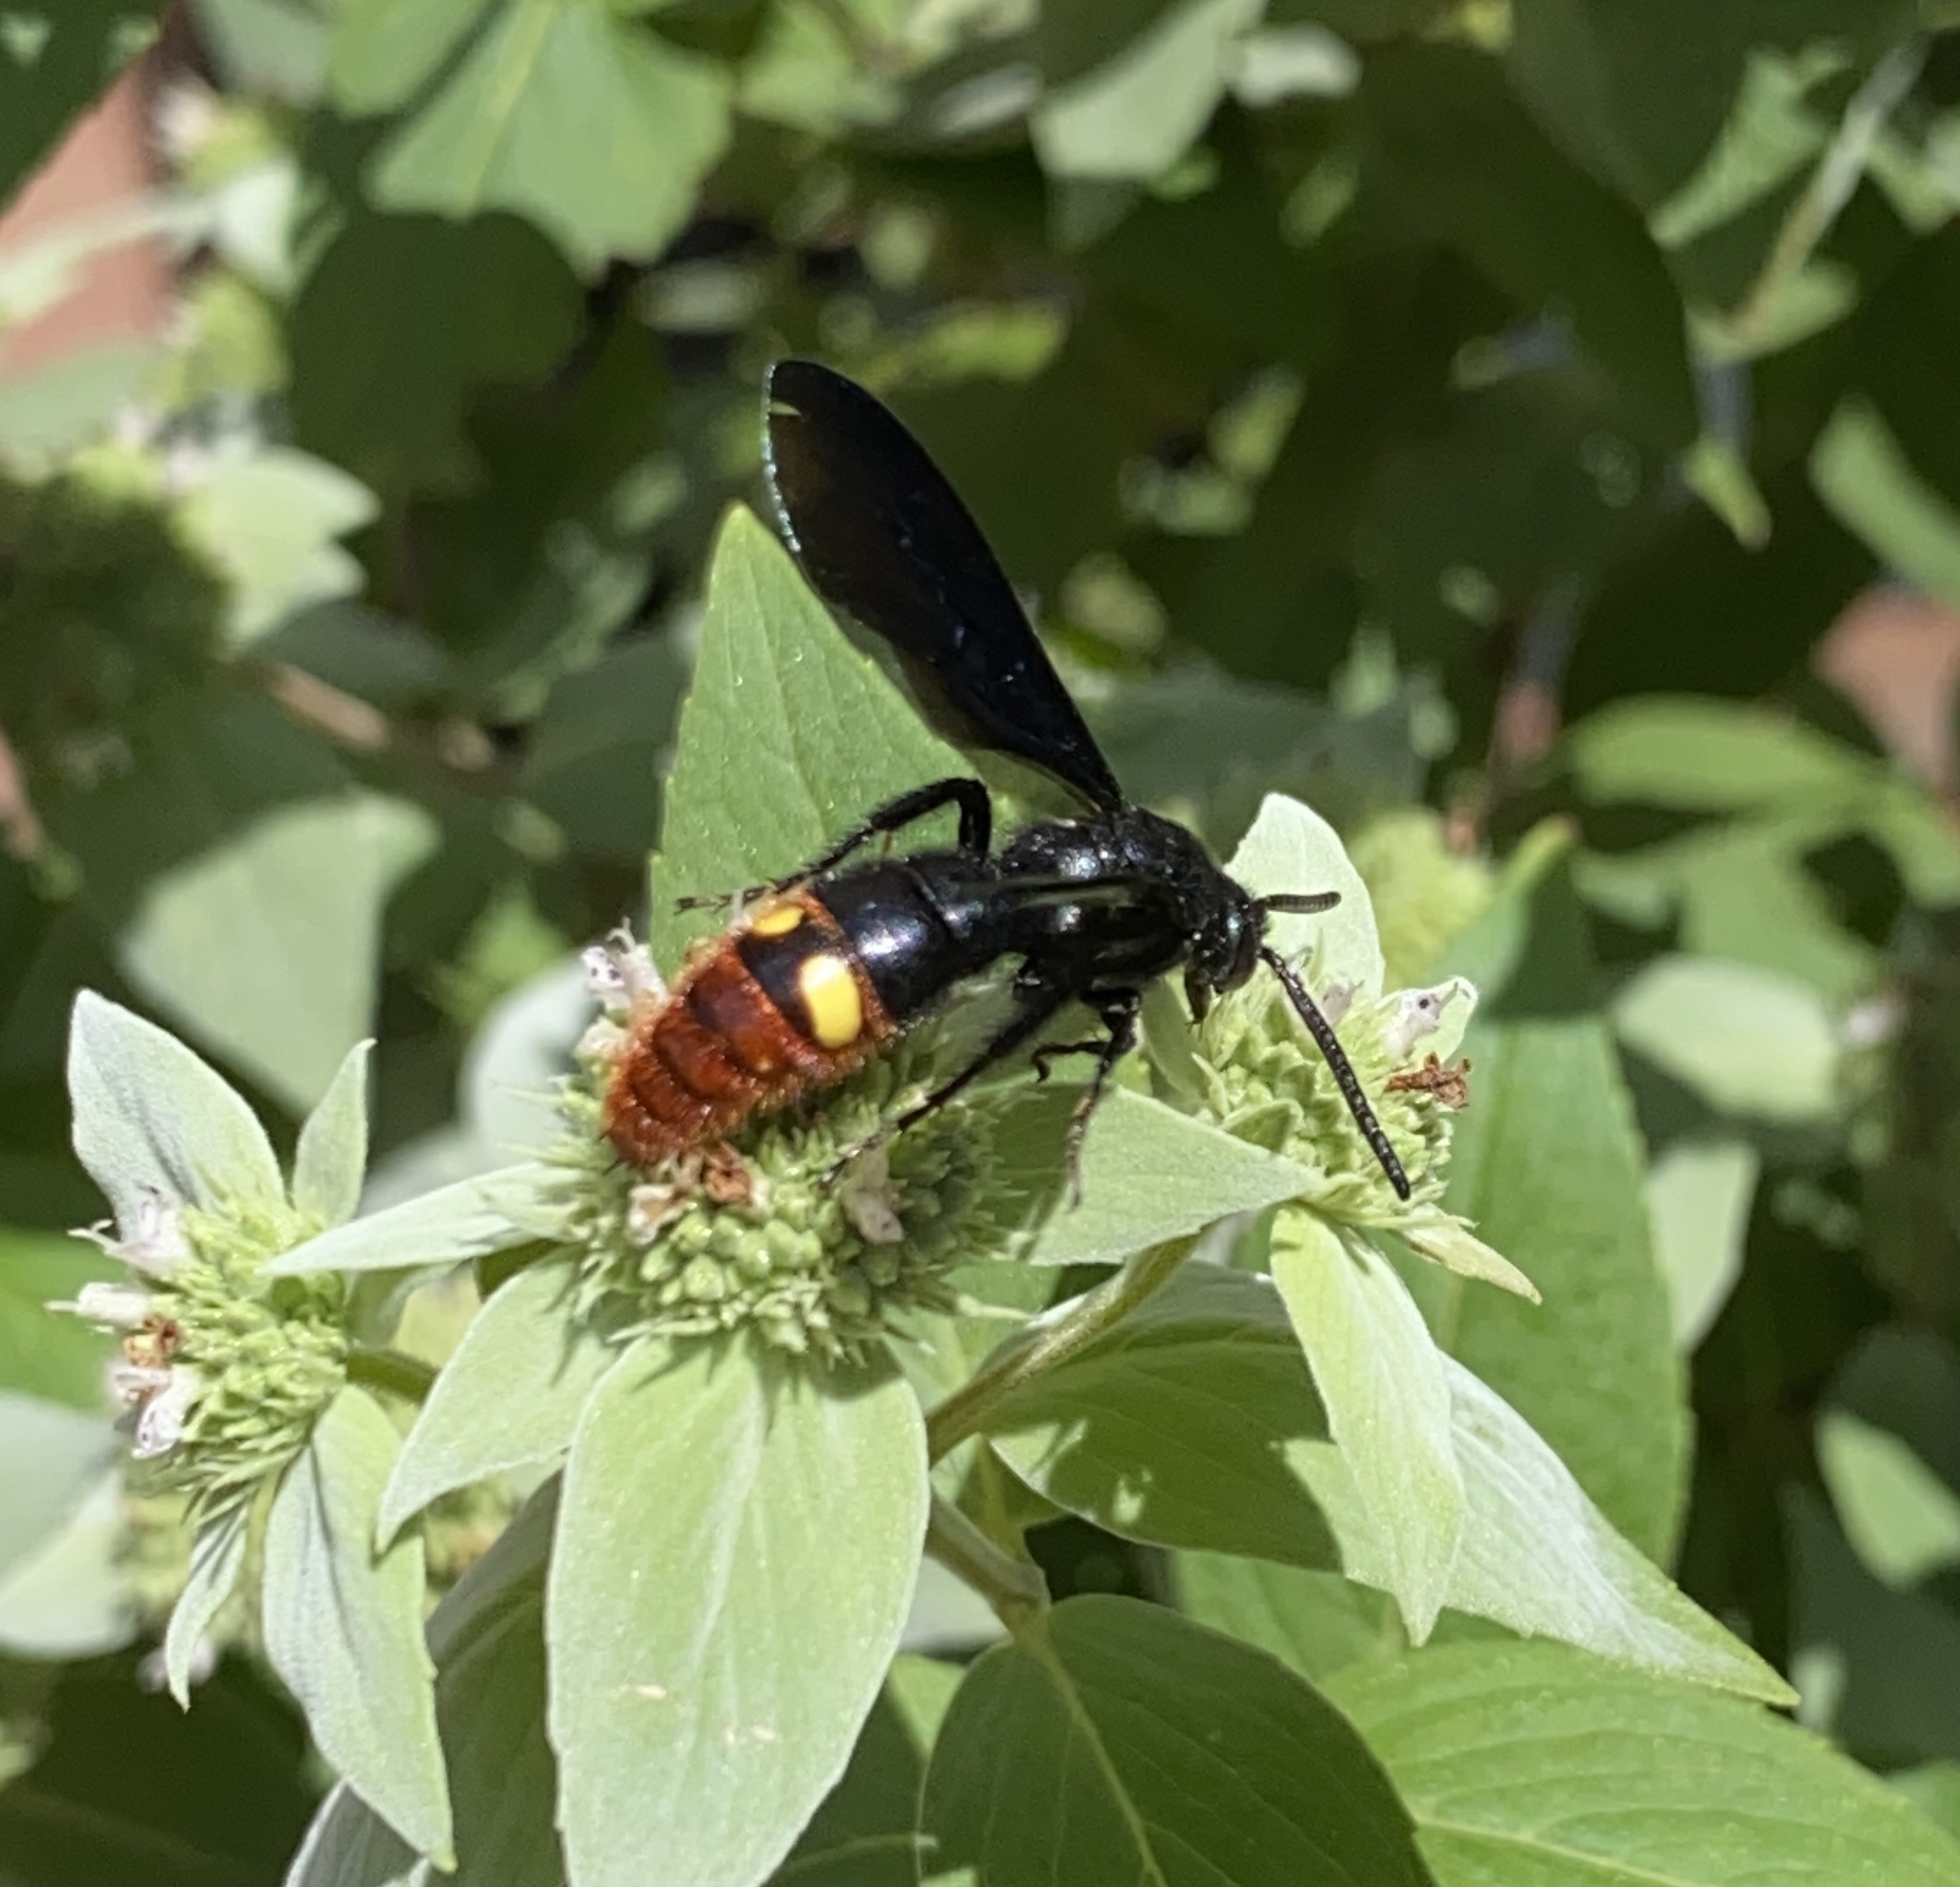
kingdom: Animalia
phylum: Arthropoda
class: Insecta
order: Hymenoptera
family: Scoliidae
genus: Scolia
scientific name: Scolia dubia
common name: Blue-winged scoliid wasp
